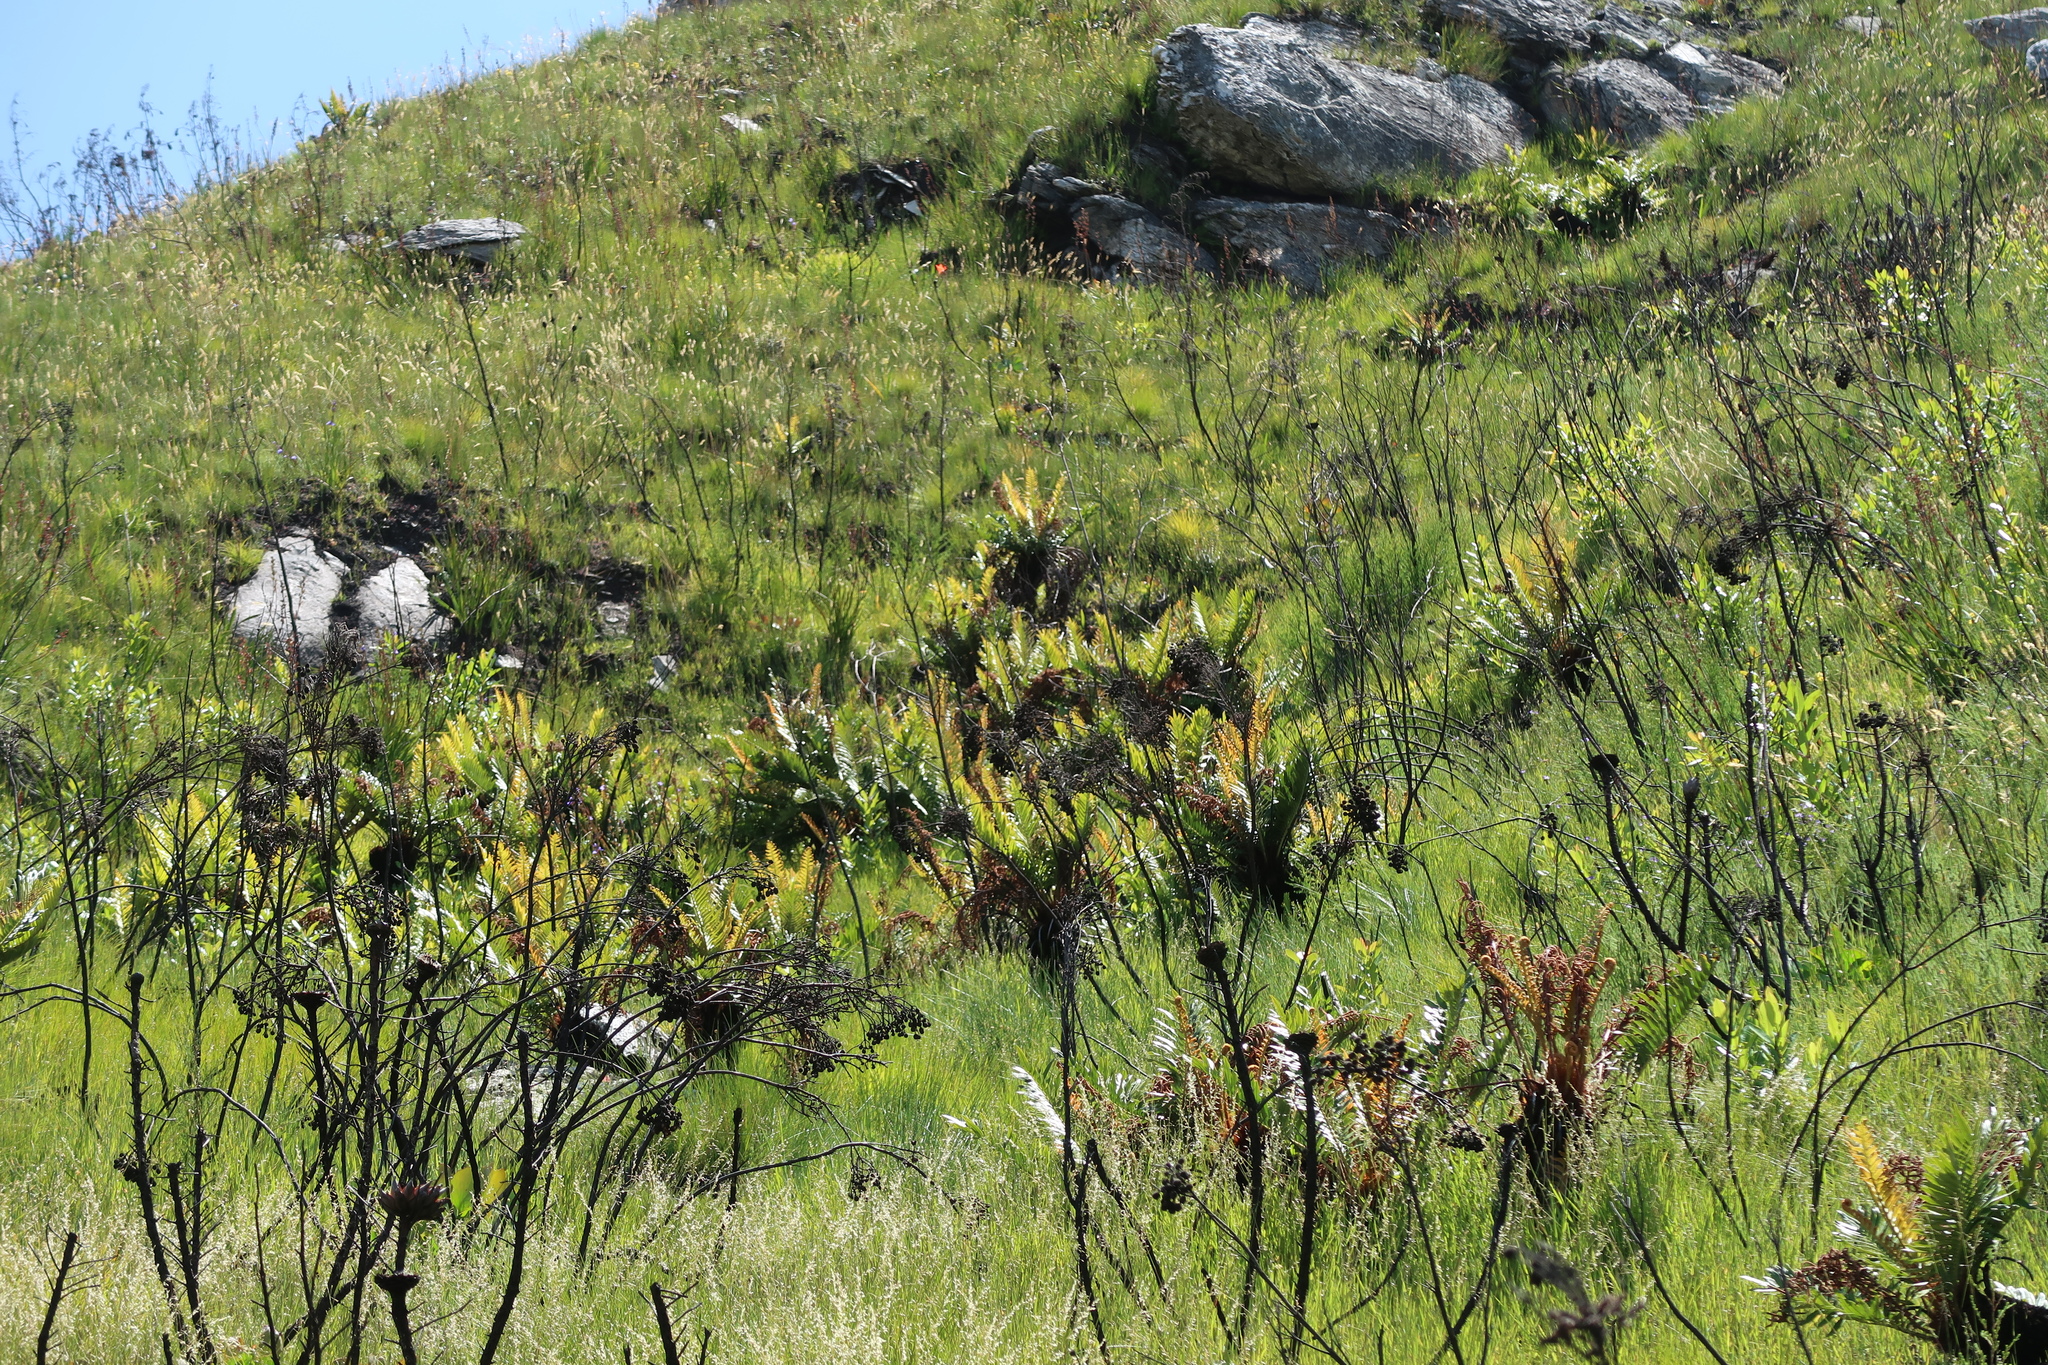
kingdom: Plantae
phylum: Tracheophyta
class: Polypodiopsida
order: Polypodiales
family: Blechnaceae
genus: Lomariocycas
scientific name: Lomariocycas tabularis
